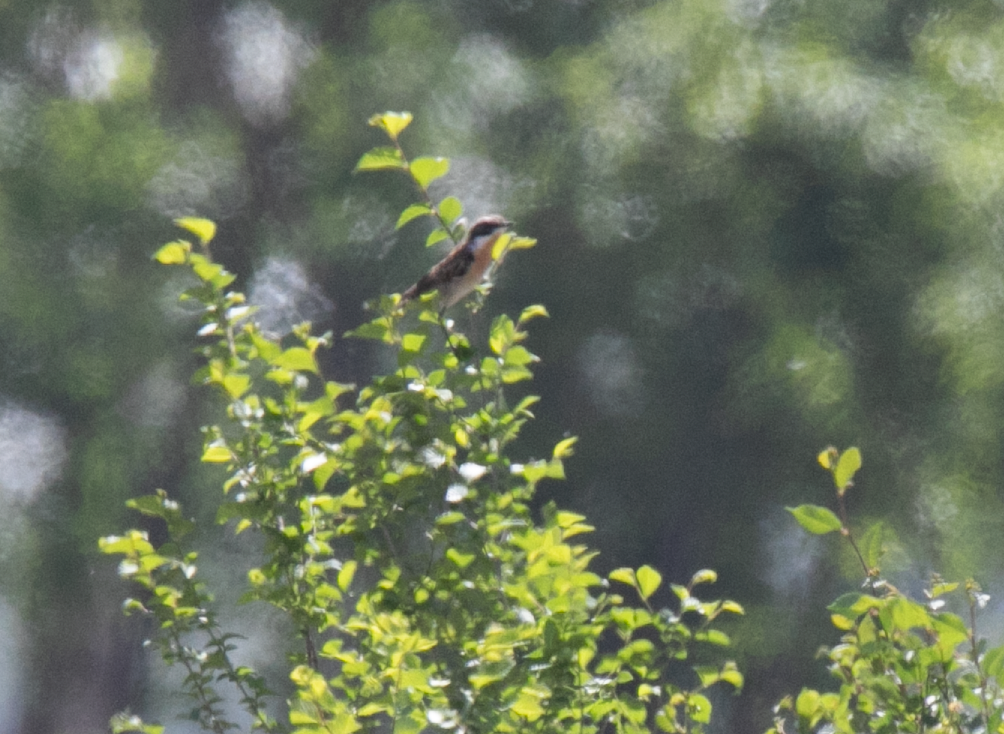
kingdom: Animalia
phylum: Chordata
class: Aves
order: Passeriformes
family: Muscicapidae
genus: Saxicola
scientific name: Saxicola rubicola
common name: European stonechat
